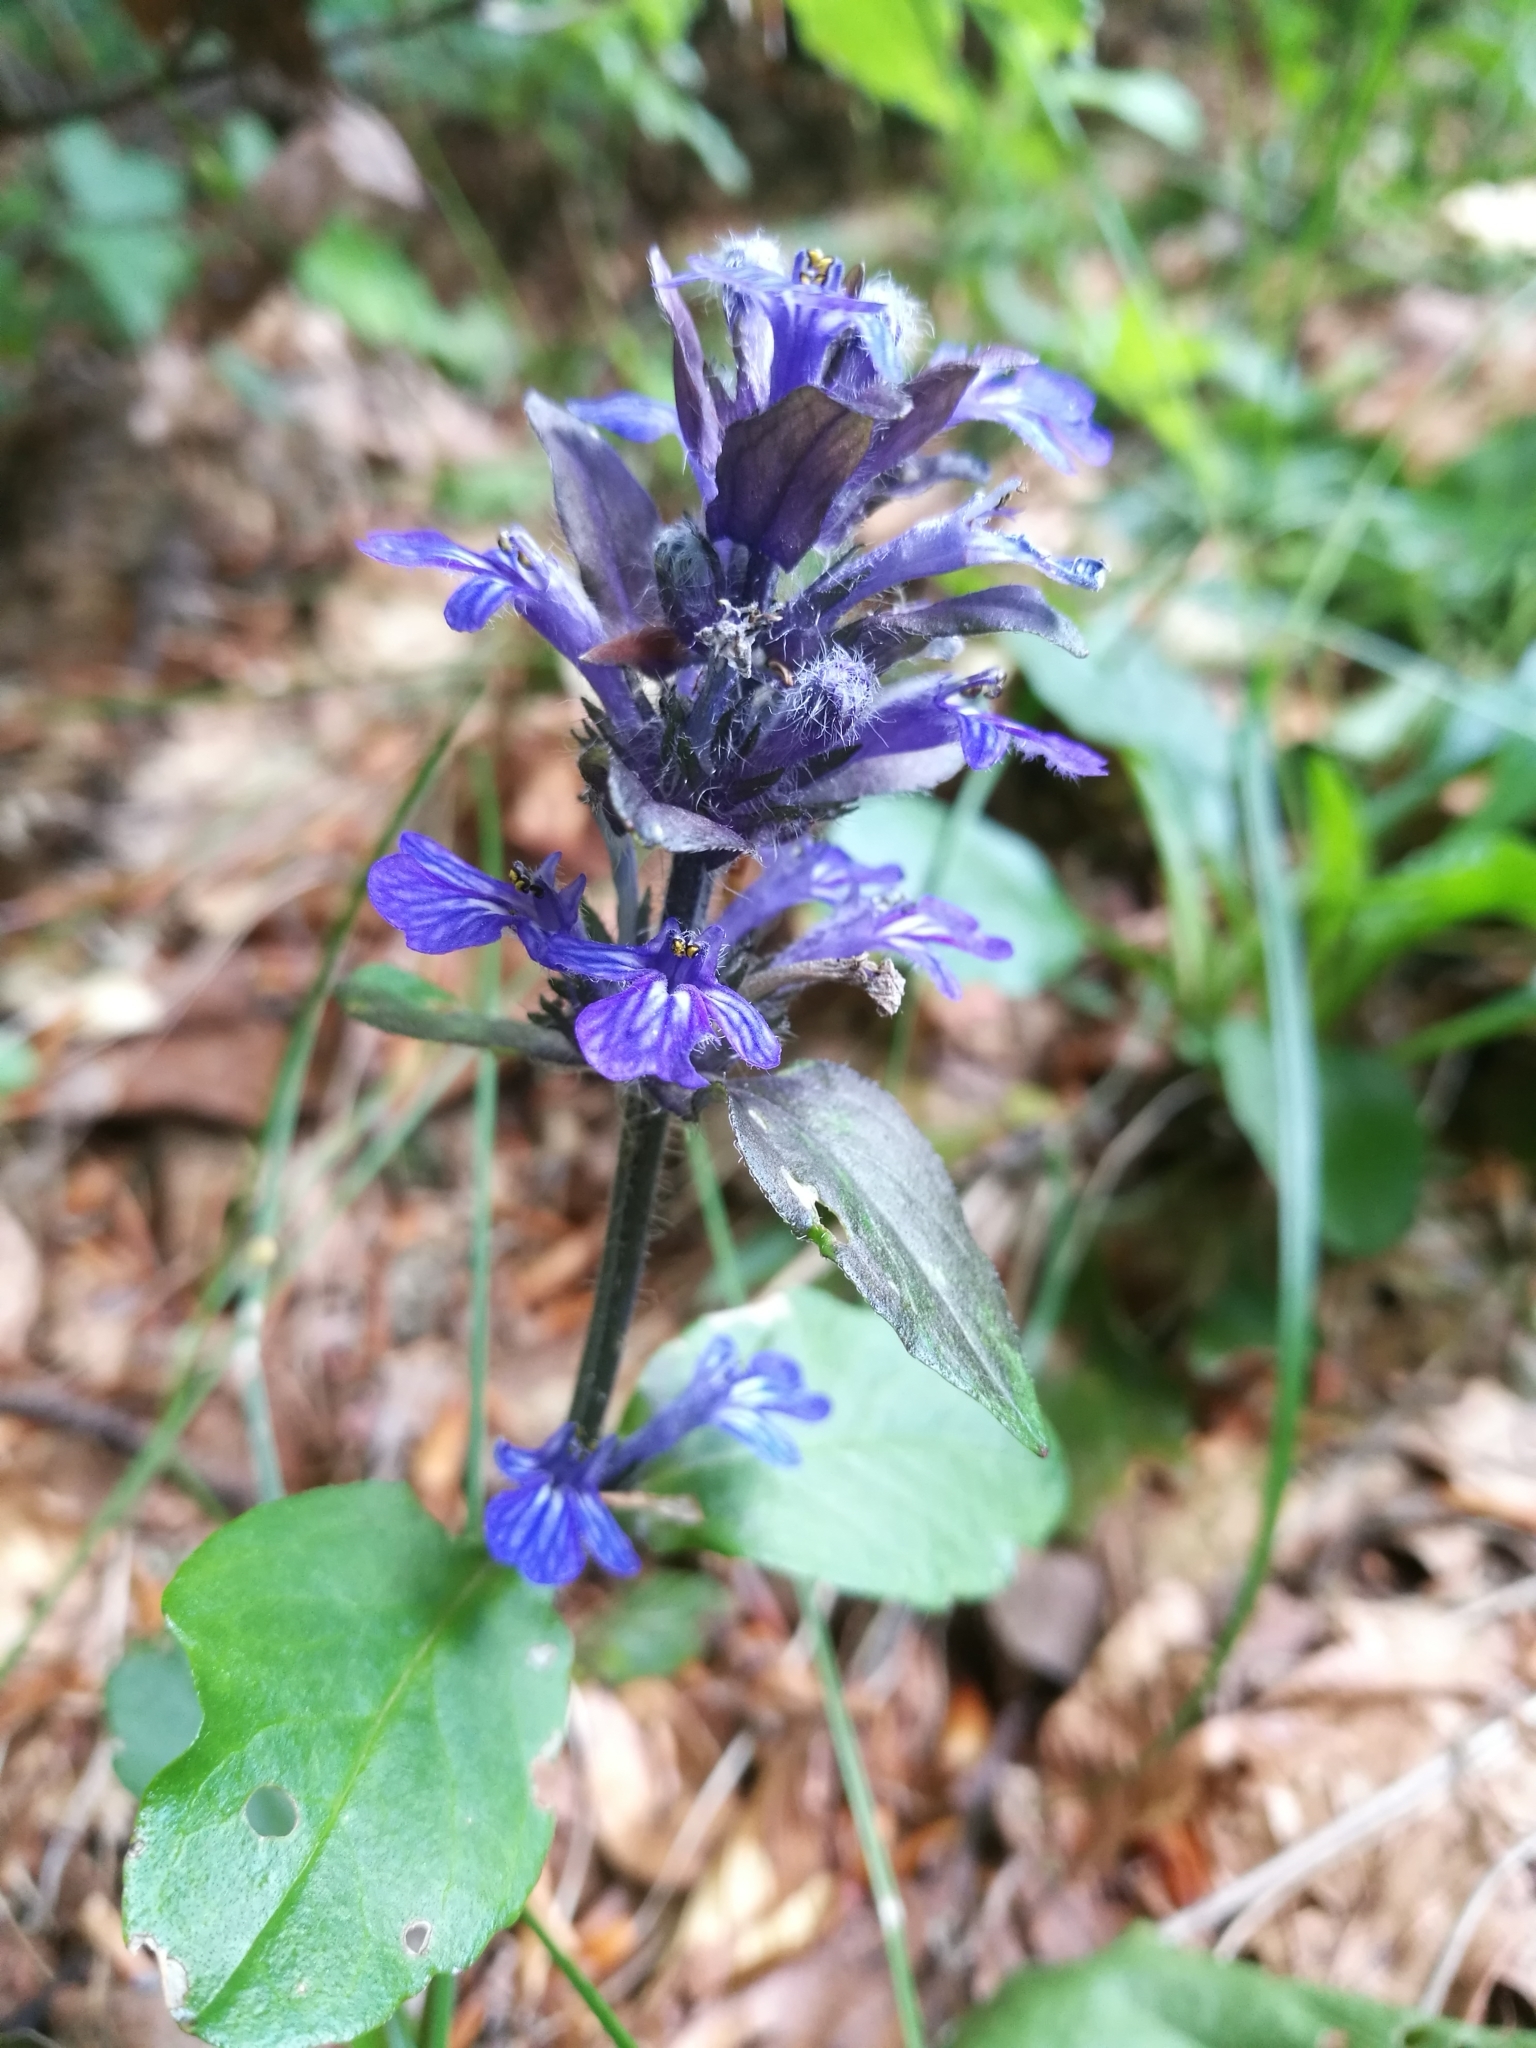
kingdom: Plantae
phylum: Tracheophyta
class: Magnoliopsida
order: Lamiales
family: Lamiaceae
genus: Ajuga
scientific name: Ajuga reptans
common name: Bugle
